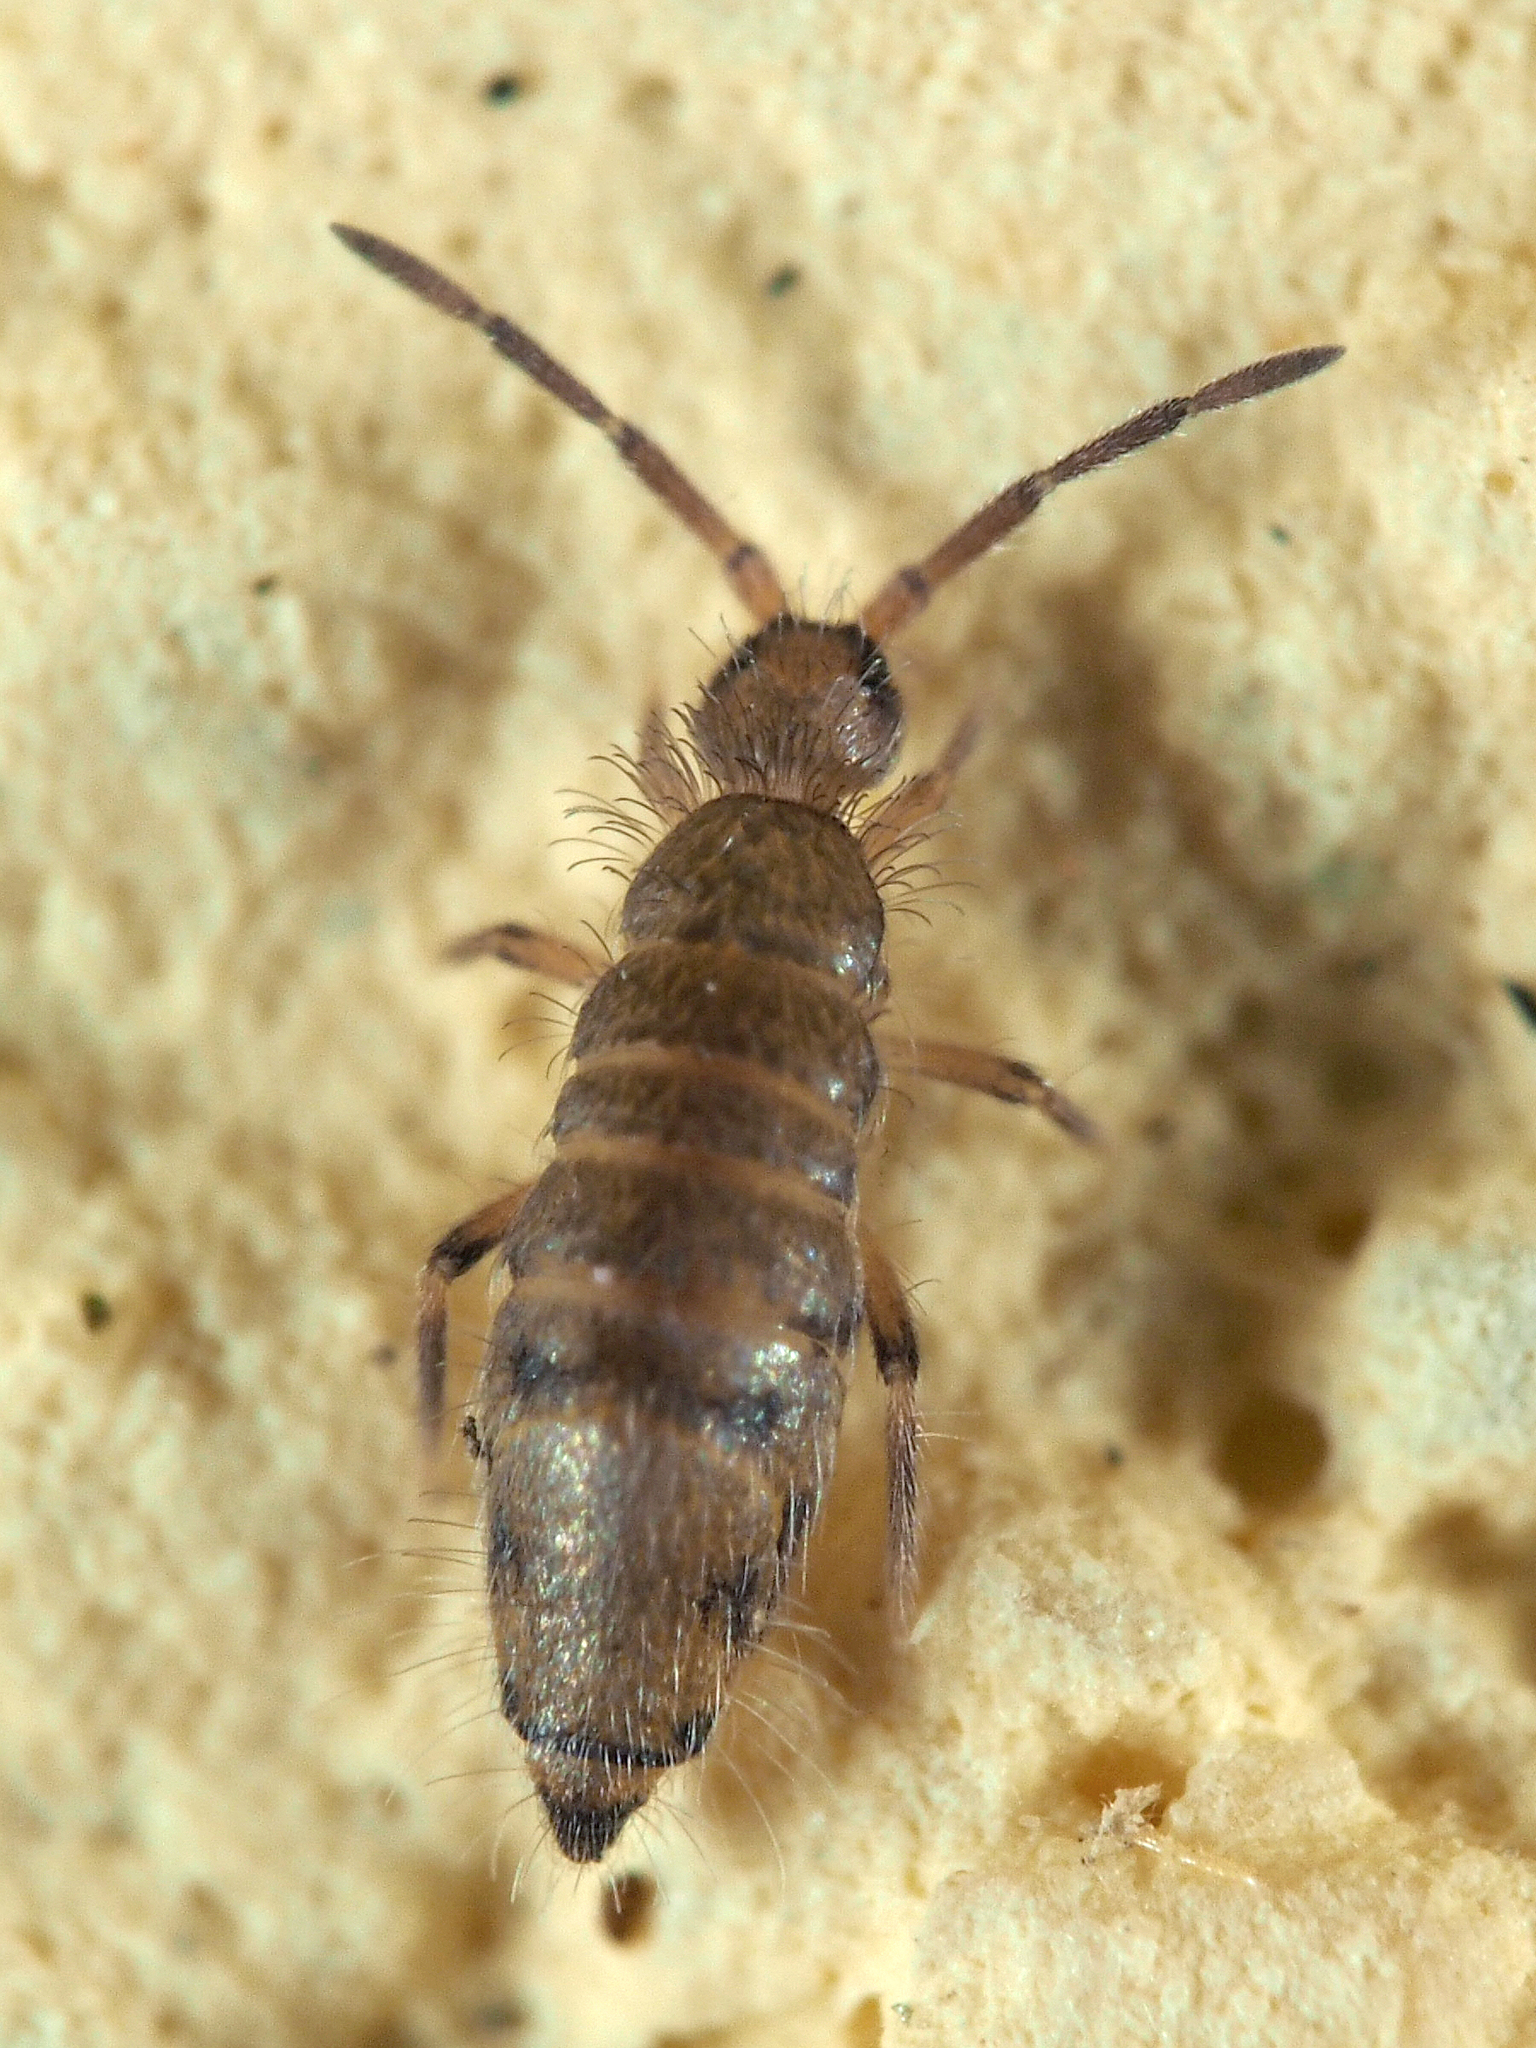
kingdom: Animalia
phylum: Arthropoda
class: Collembola
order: Entomobryomorpha
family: Entomobryidae
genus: Willowsia
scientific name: Willowsia nigromaculata
